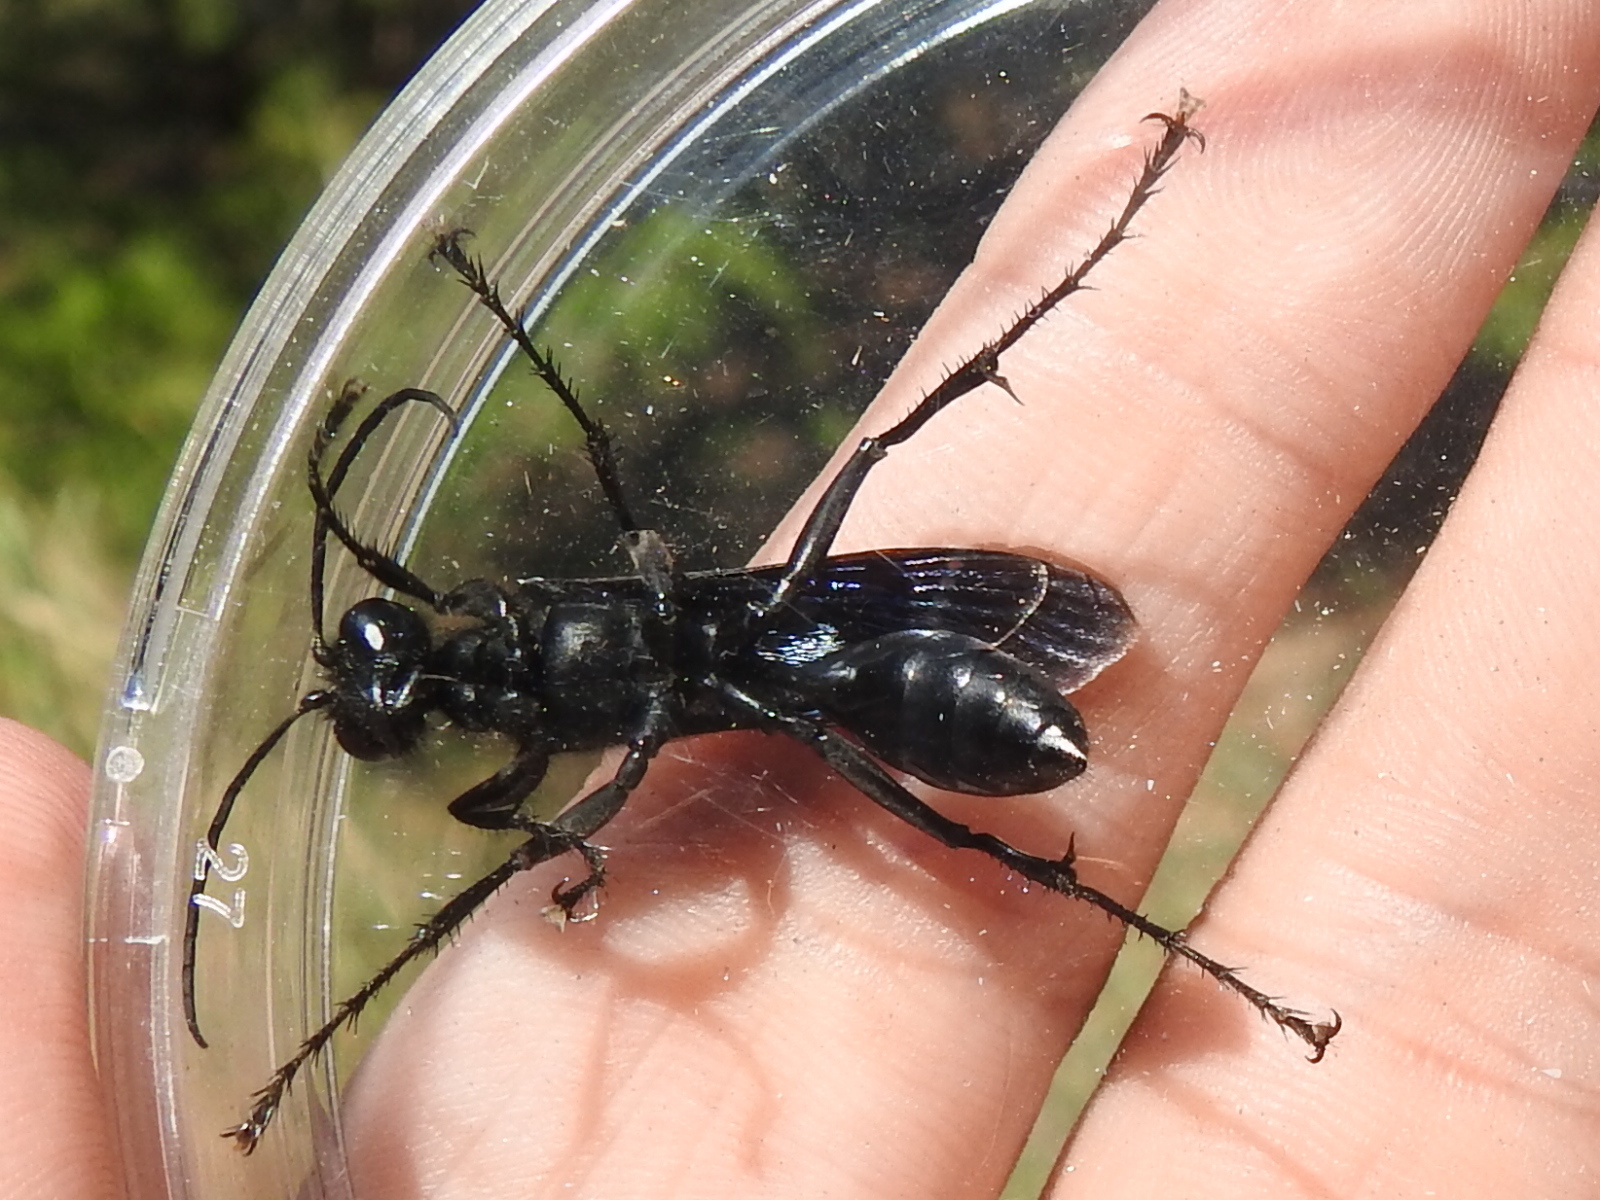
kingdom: Animalia
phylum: Arthropoda
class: Insecta
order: Hymenoptera
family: Sphecidae
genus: Sphex
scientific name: Sphex pensylvanicus
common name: Great black digger wasp
